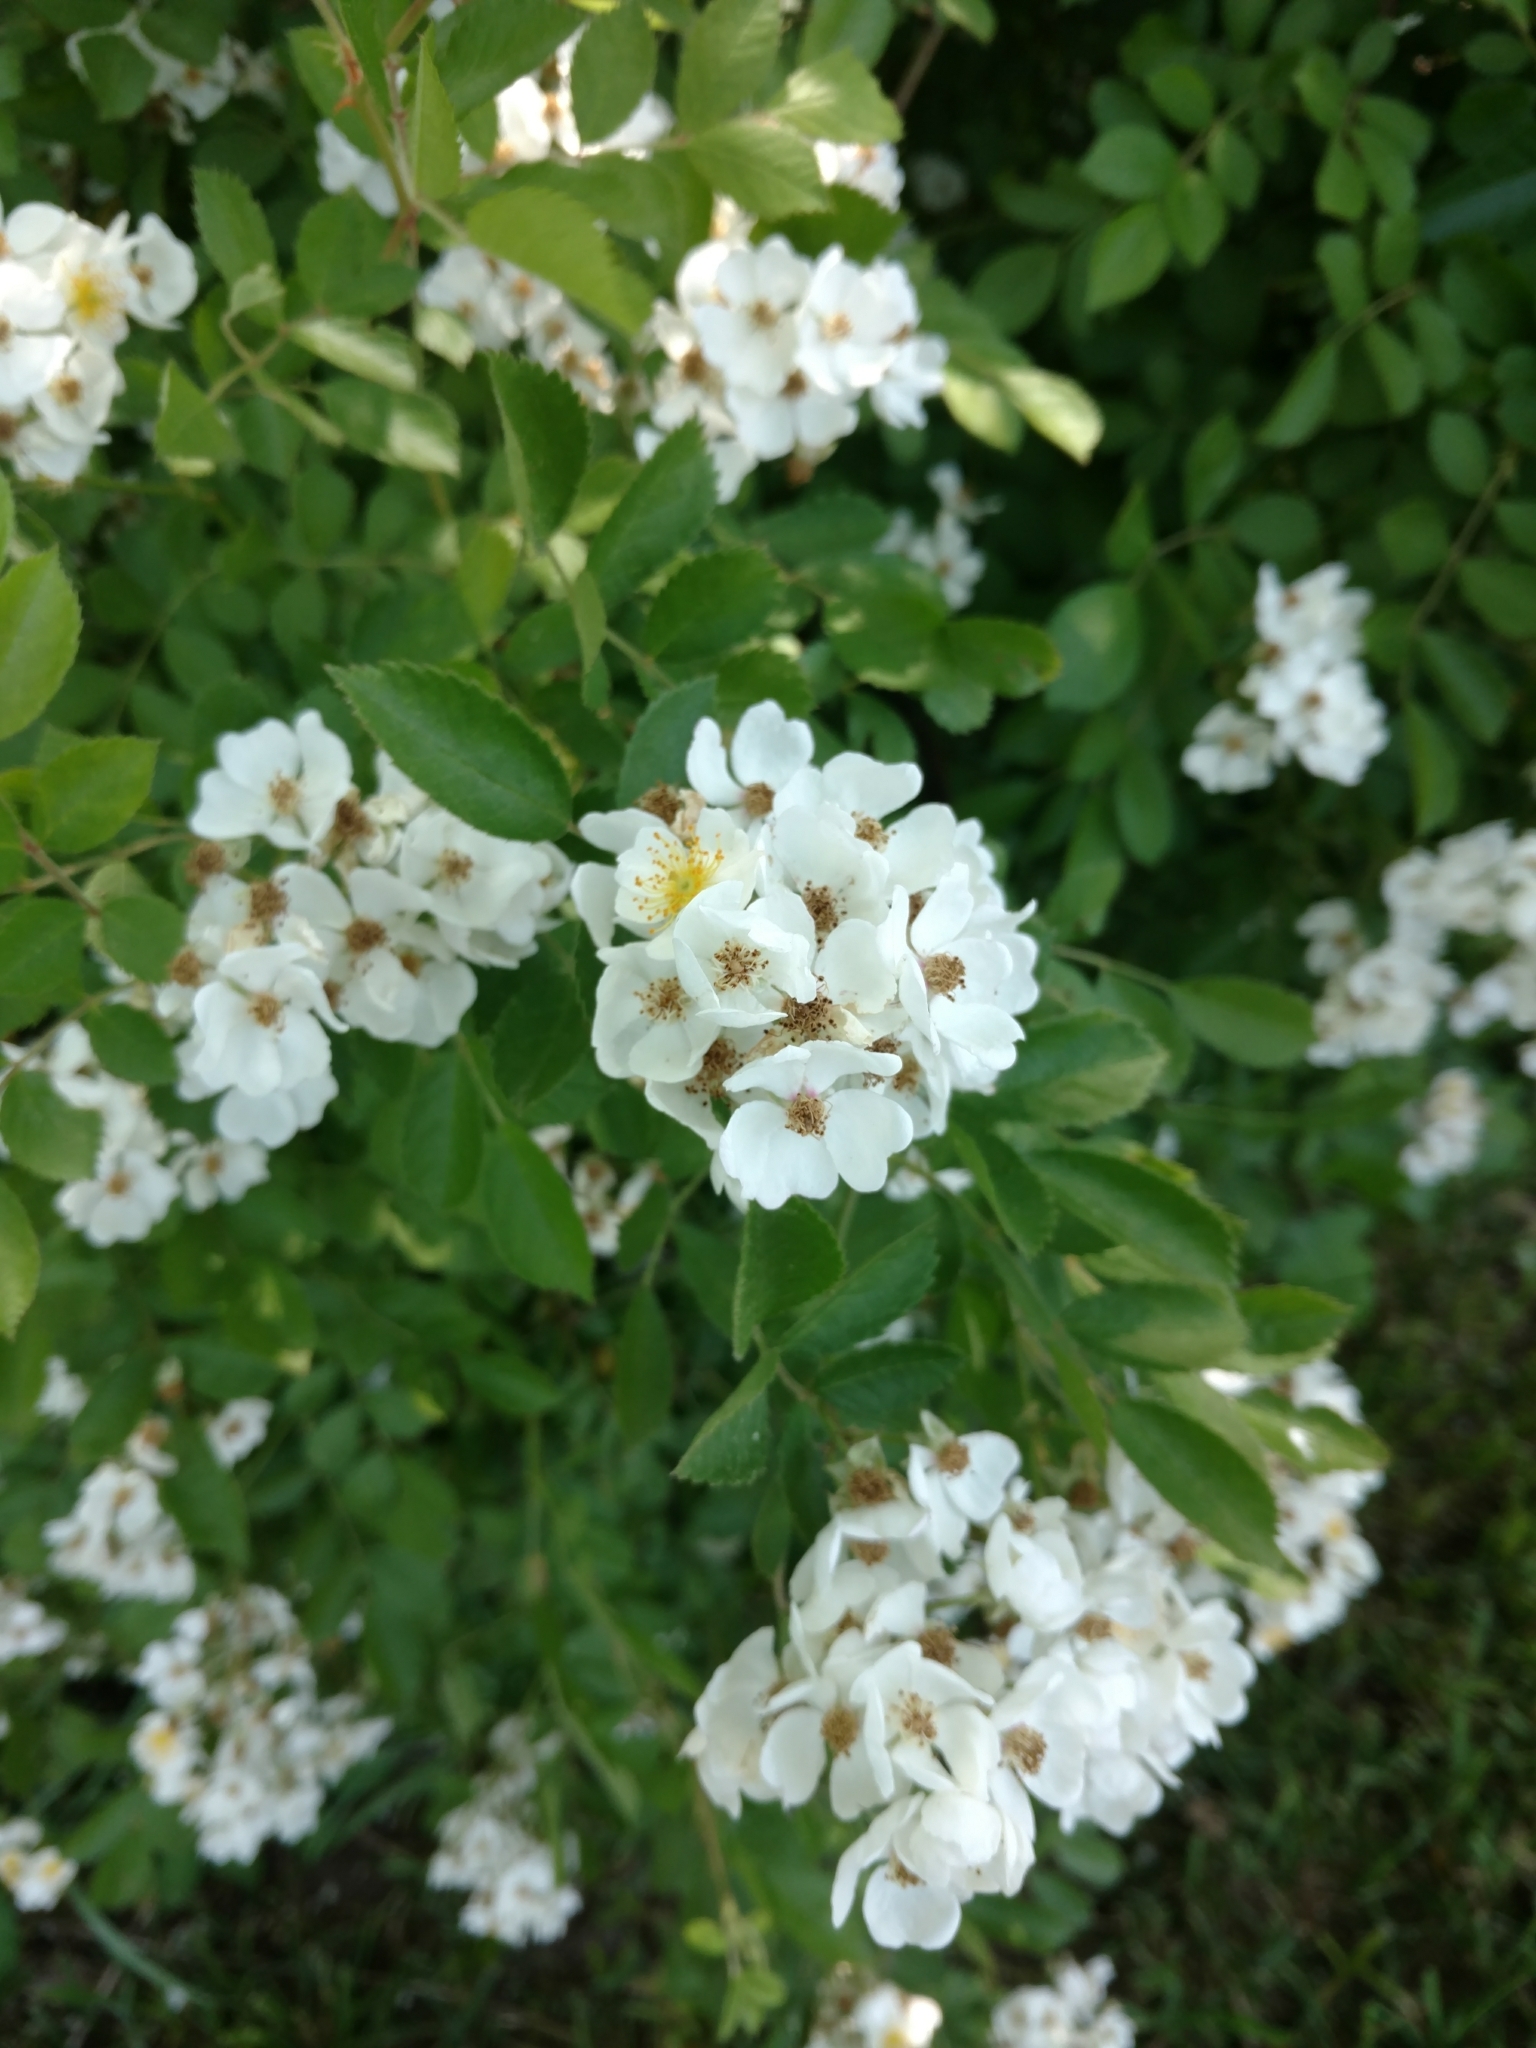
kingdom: Plantae
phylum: Tracheophyta
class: Magnoliopsida
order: Rosales
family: Rosaceae
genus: Rosa
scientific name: Rosa multiflora
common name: Multiflora rose
